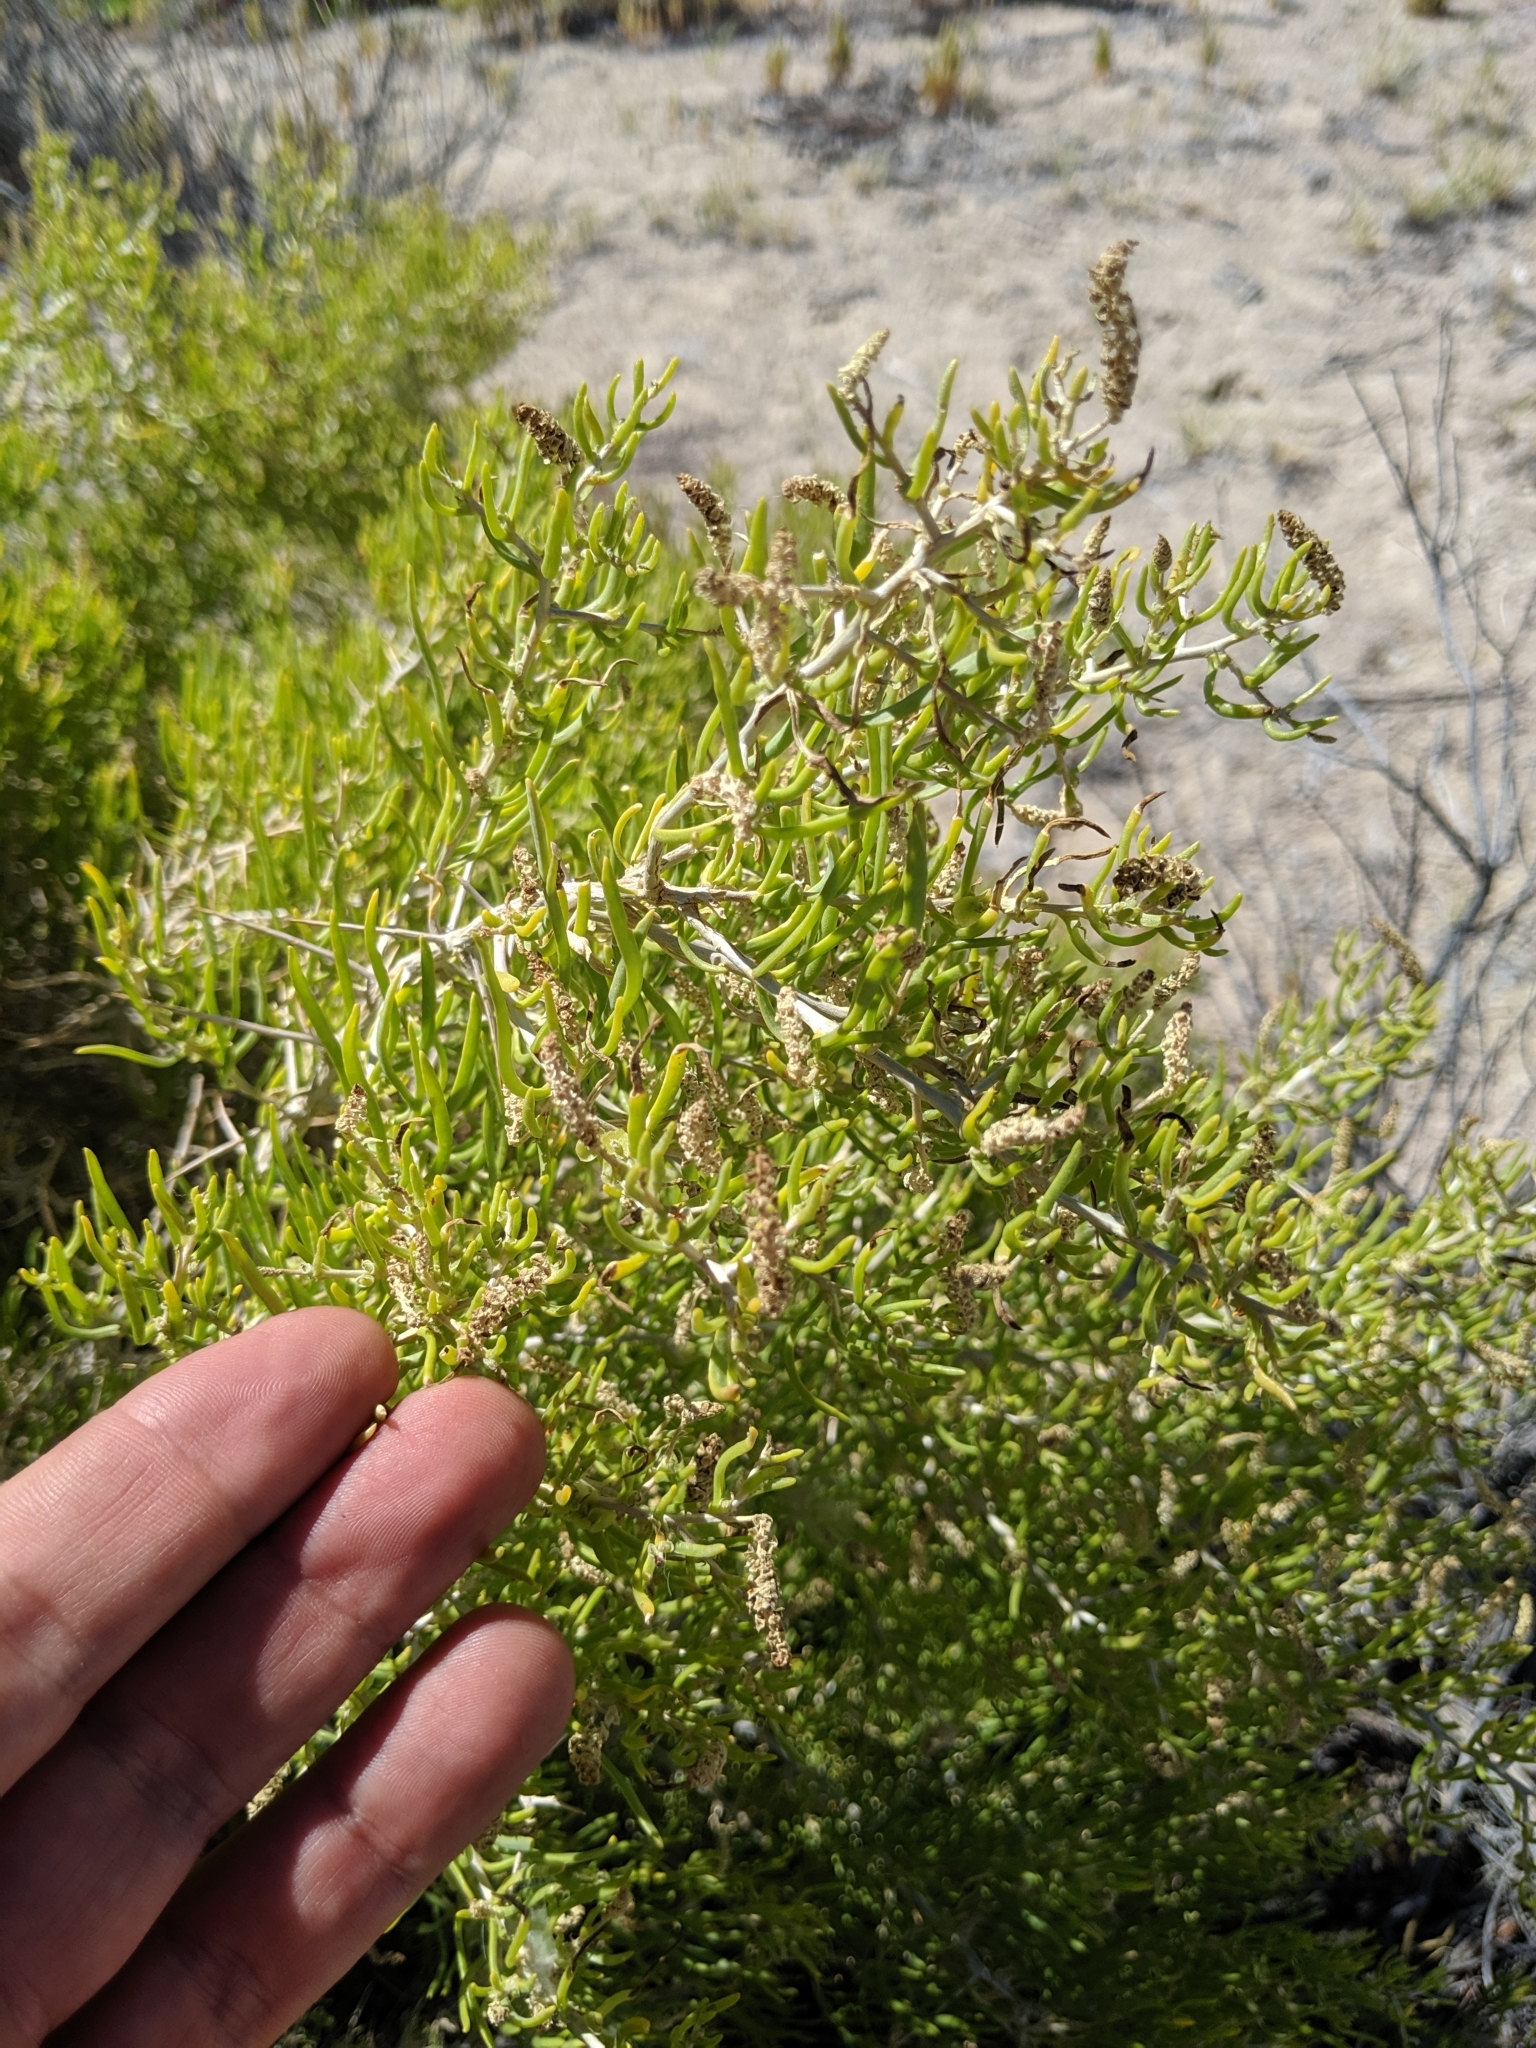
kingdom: Plantae
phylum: Tracheophyta
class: Magnoliopsida
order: Caryophyllales
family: Sarcobataceae
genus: Sarcobatus
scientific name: Sarcobatus vermiculatus
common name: Greasewood
